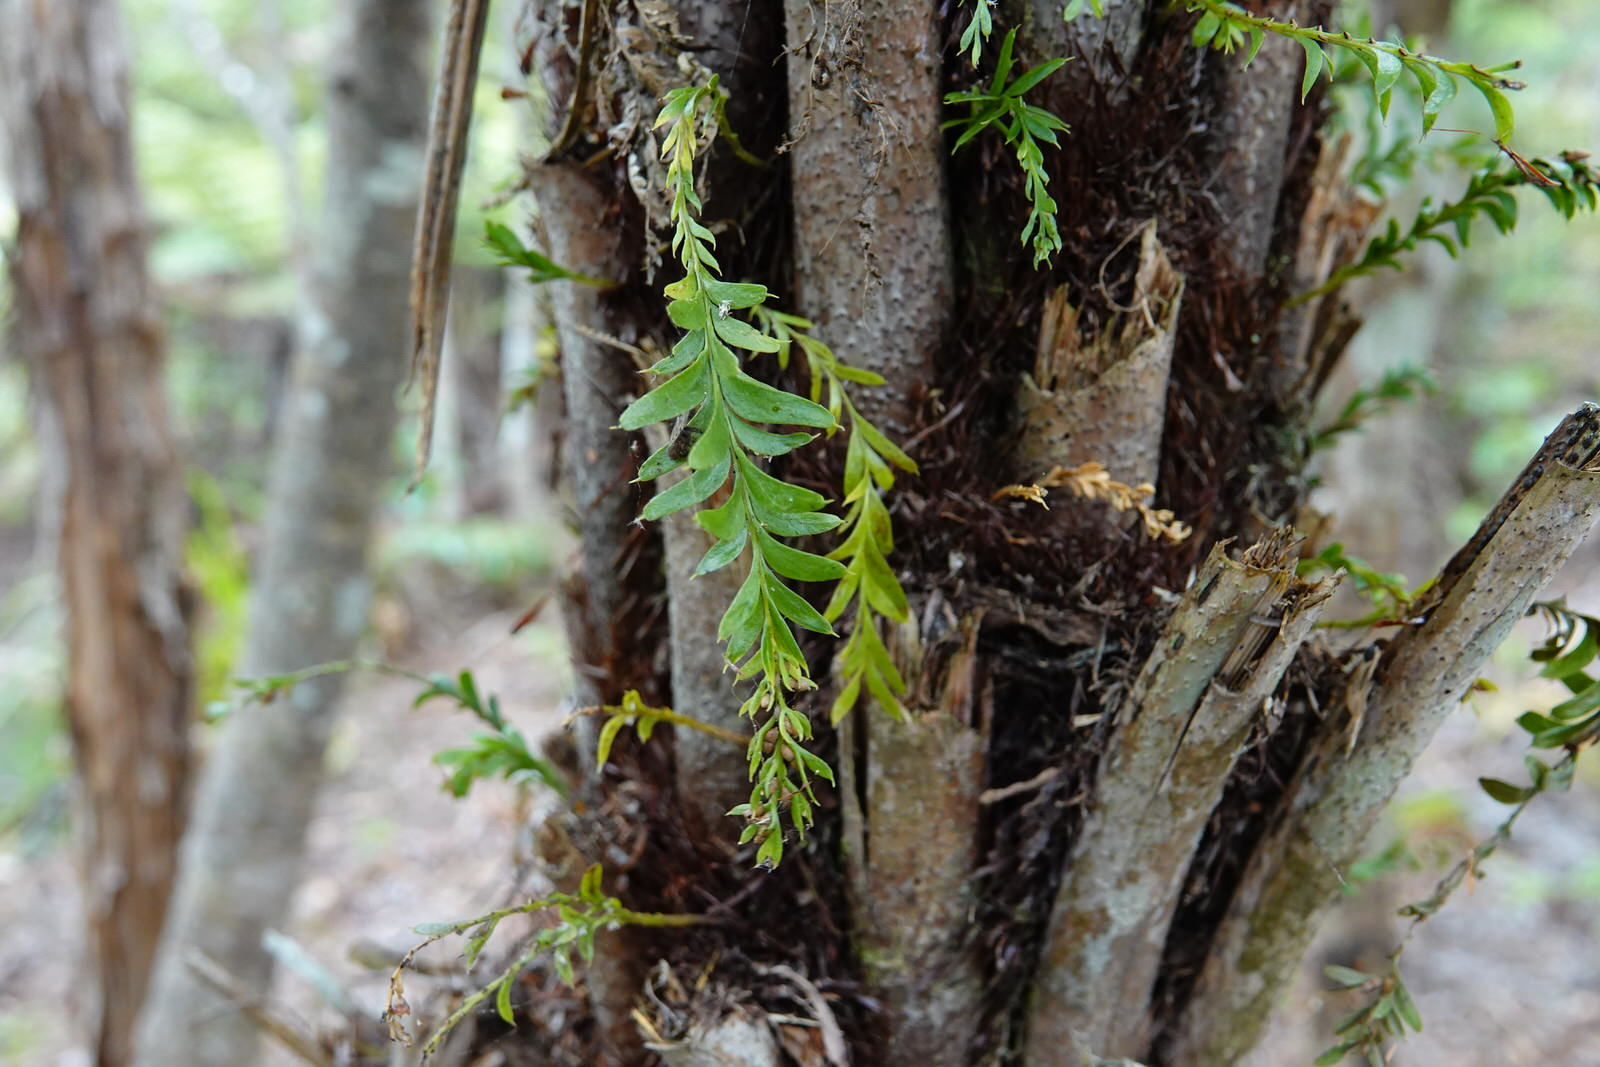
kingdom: Plantae
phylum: Tracheophyta
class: Polypodiopsida
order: Psilotales
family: Psilotaceae
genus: Tmesipteris
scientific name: Tmesipteris elongata
